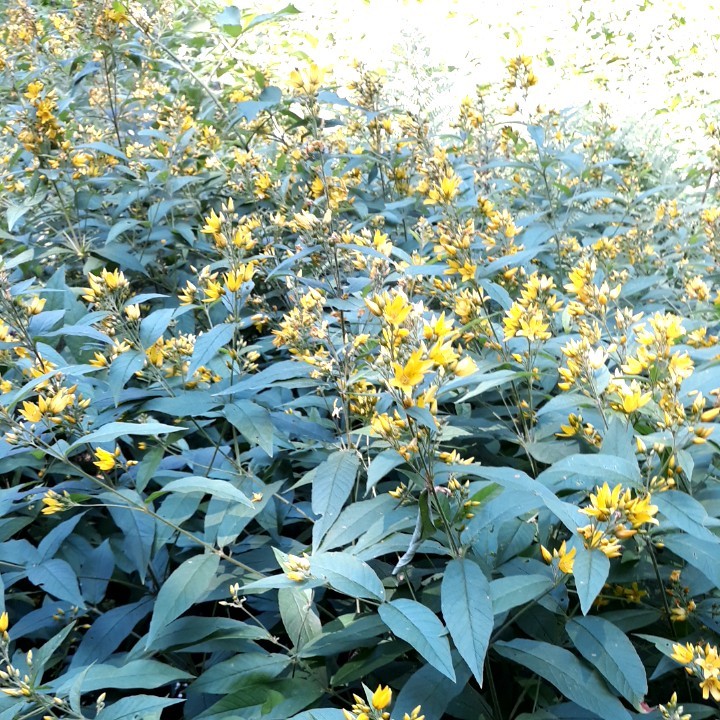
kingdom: Plantae
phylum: Tracheophyta
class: Magnoliopsida
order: Ericales
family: Primulaceae
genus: Lysimachia
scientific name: Lysimachia vulgaris
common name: Yellow loosestrife
